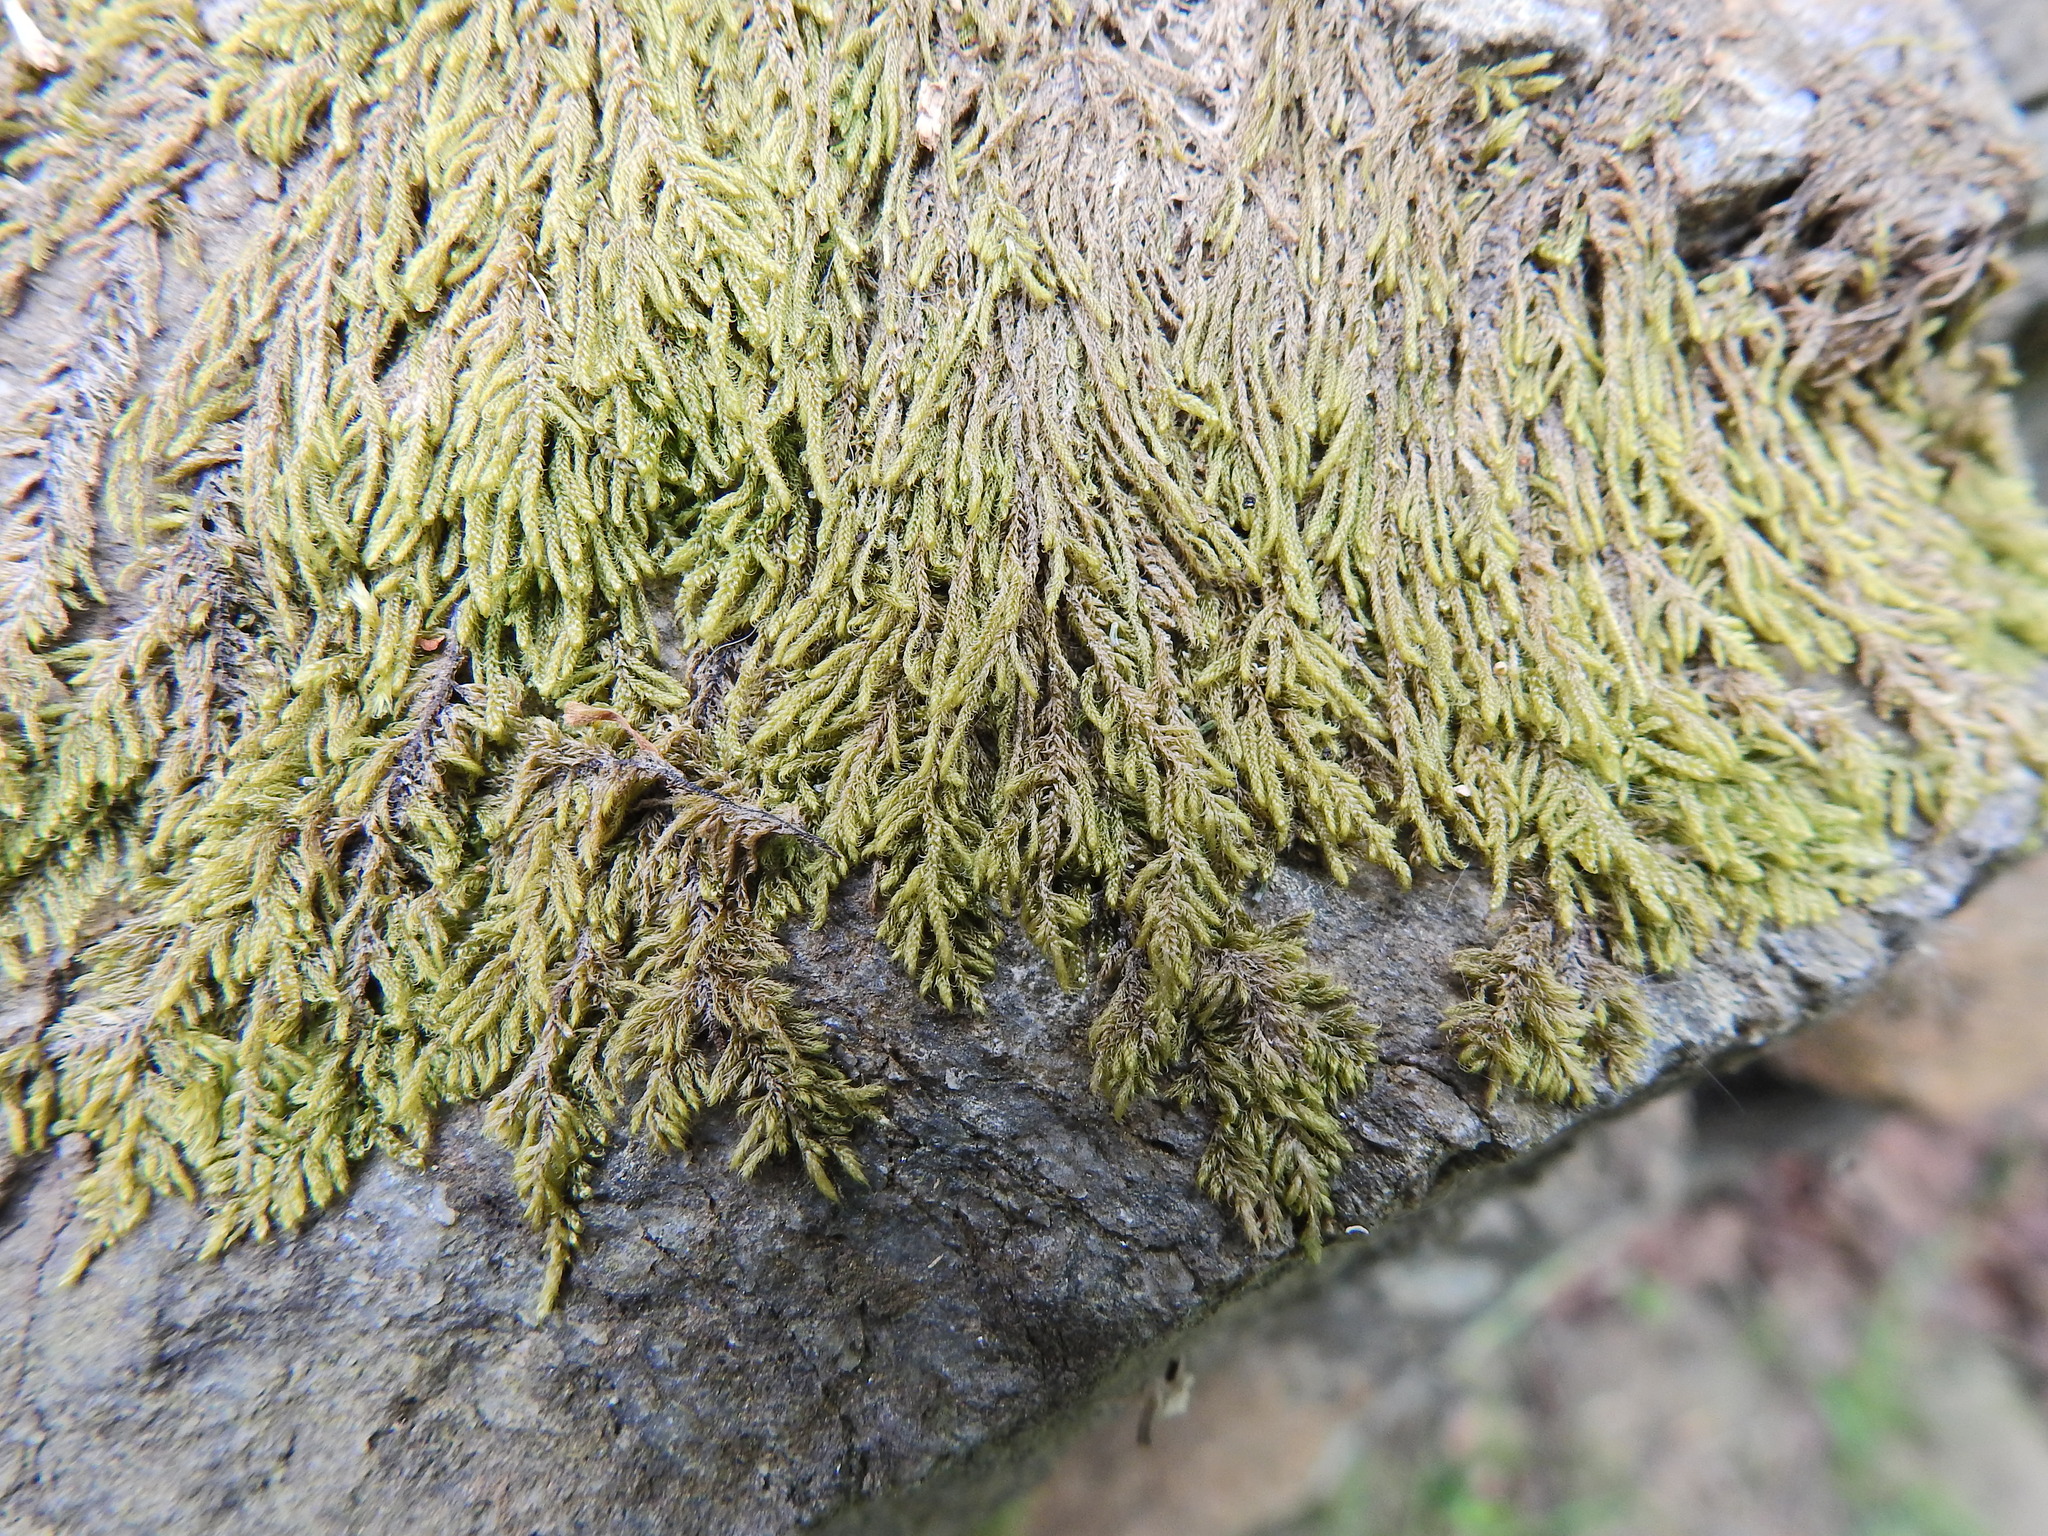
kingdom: Plantae
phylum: Bryophyta
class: Bryopsida
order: Hypnales
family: Hypnaceae
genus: Hypnum
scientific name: Hypnum andoi
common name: Ando's plait moss
